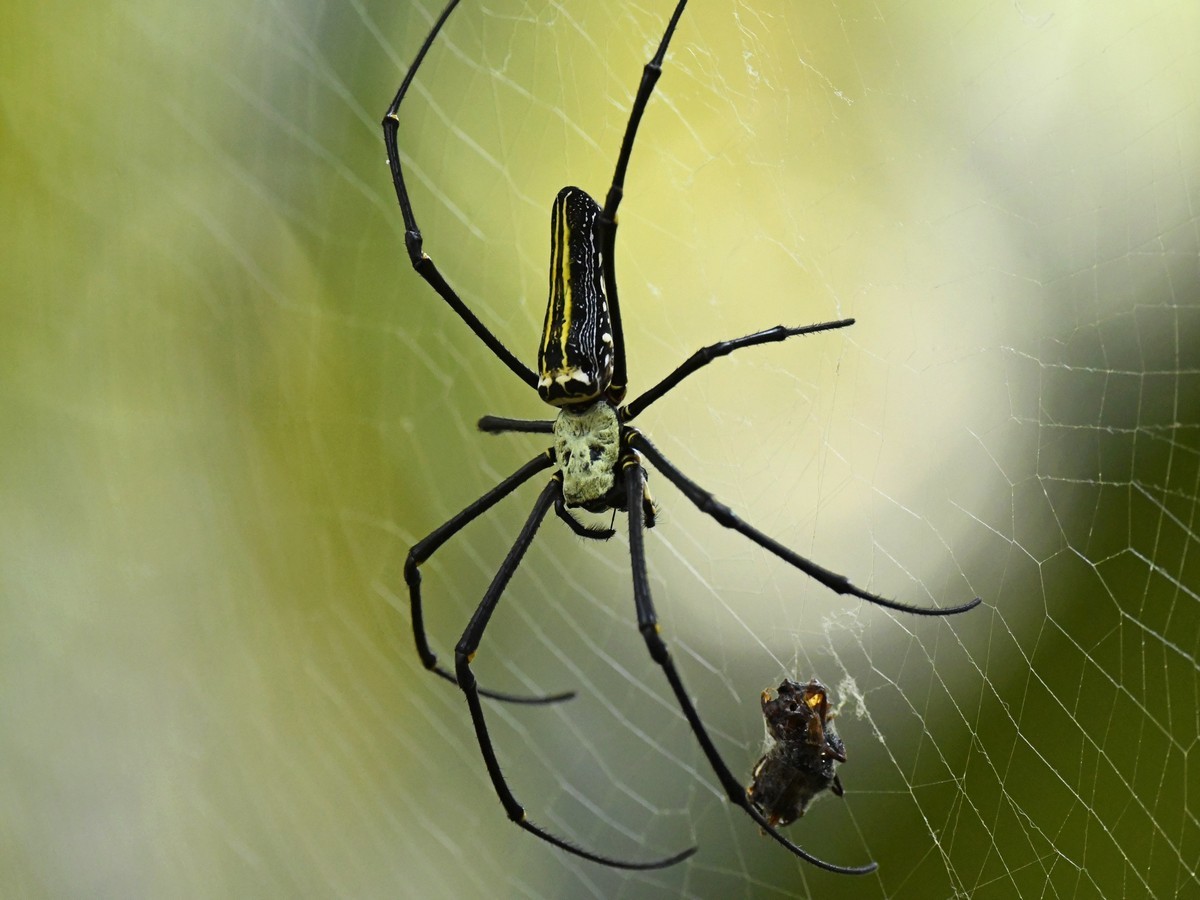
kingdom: Animalia
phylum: Arthropoda
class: Arachnida
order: Araneae
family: Araneidae
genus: Nephila
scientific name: Nephila pilipes
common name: Giant golden orb weaver
